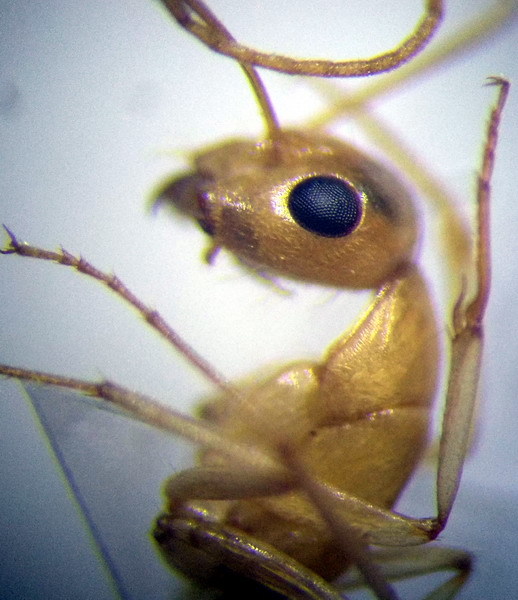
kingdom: Animalia
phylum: Arthropoda
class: Insecta
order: Hymenoptera
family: Formicidae
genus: Camponotus
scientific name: Camponotus fedtschenkoi
